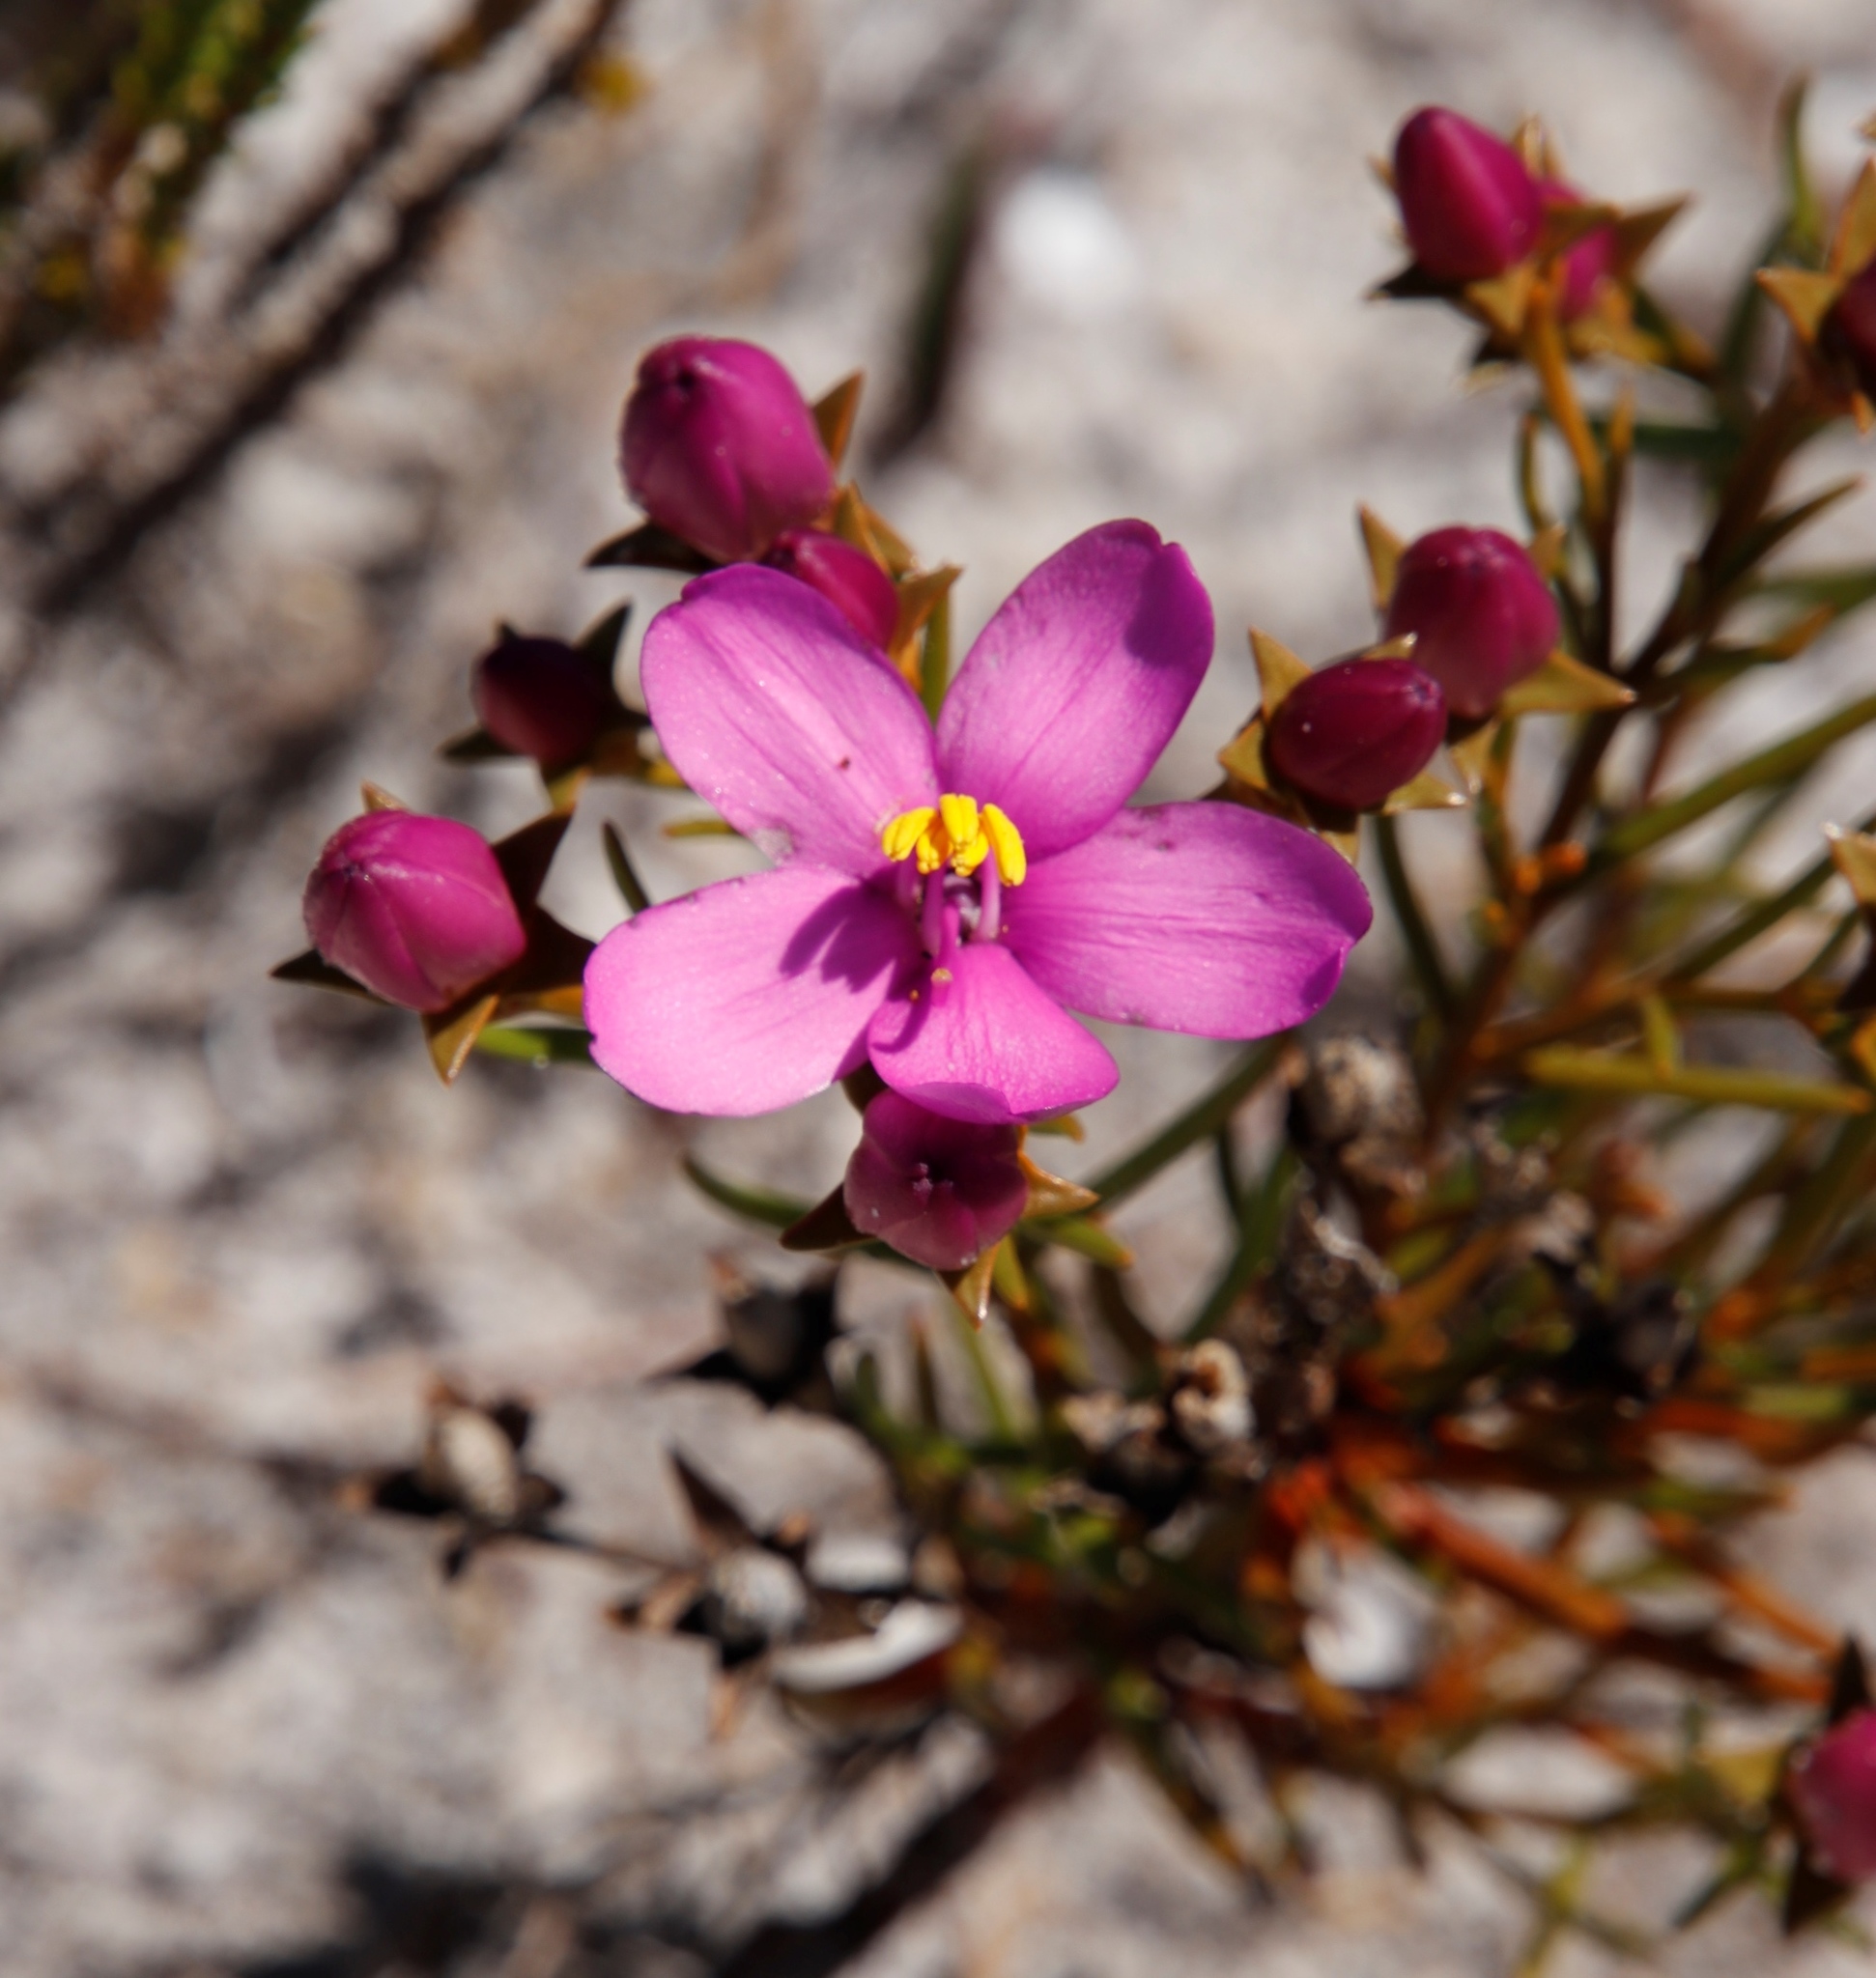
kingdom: Plantae
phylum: Tracheophyta
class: Magnoliopsida
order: Gentianales
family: Gentianaceae
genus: Chironia
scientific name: Chironia linoides
